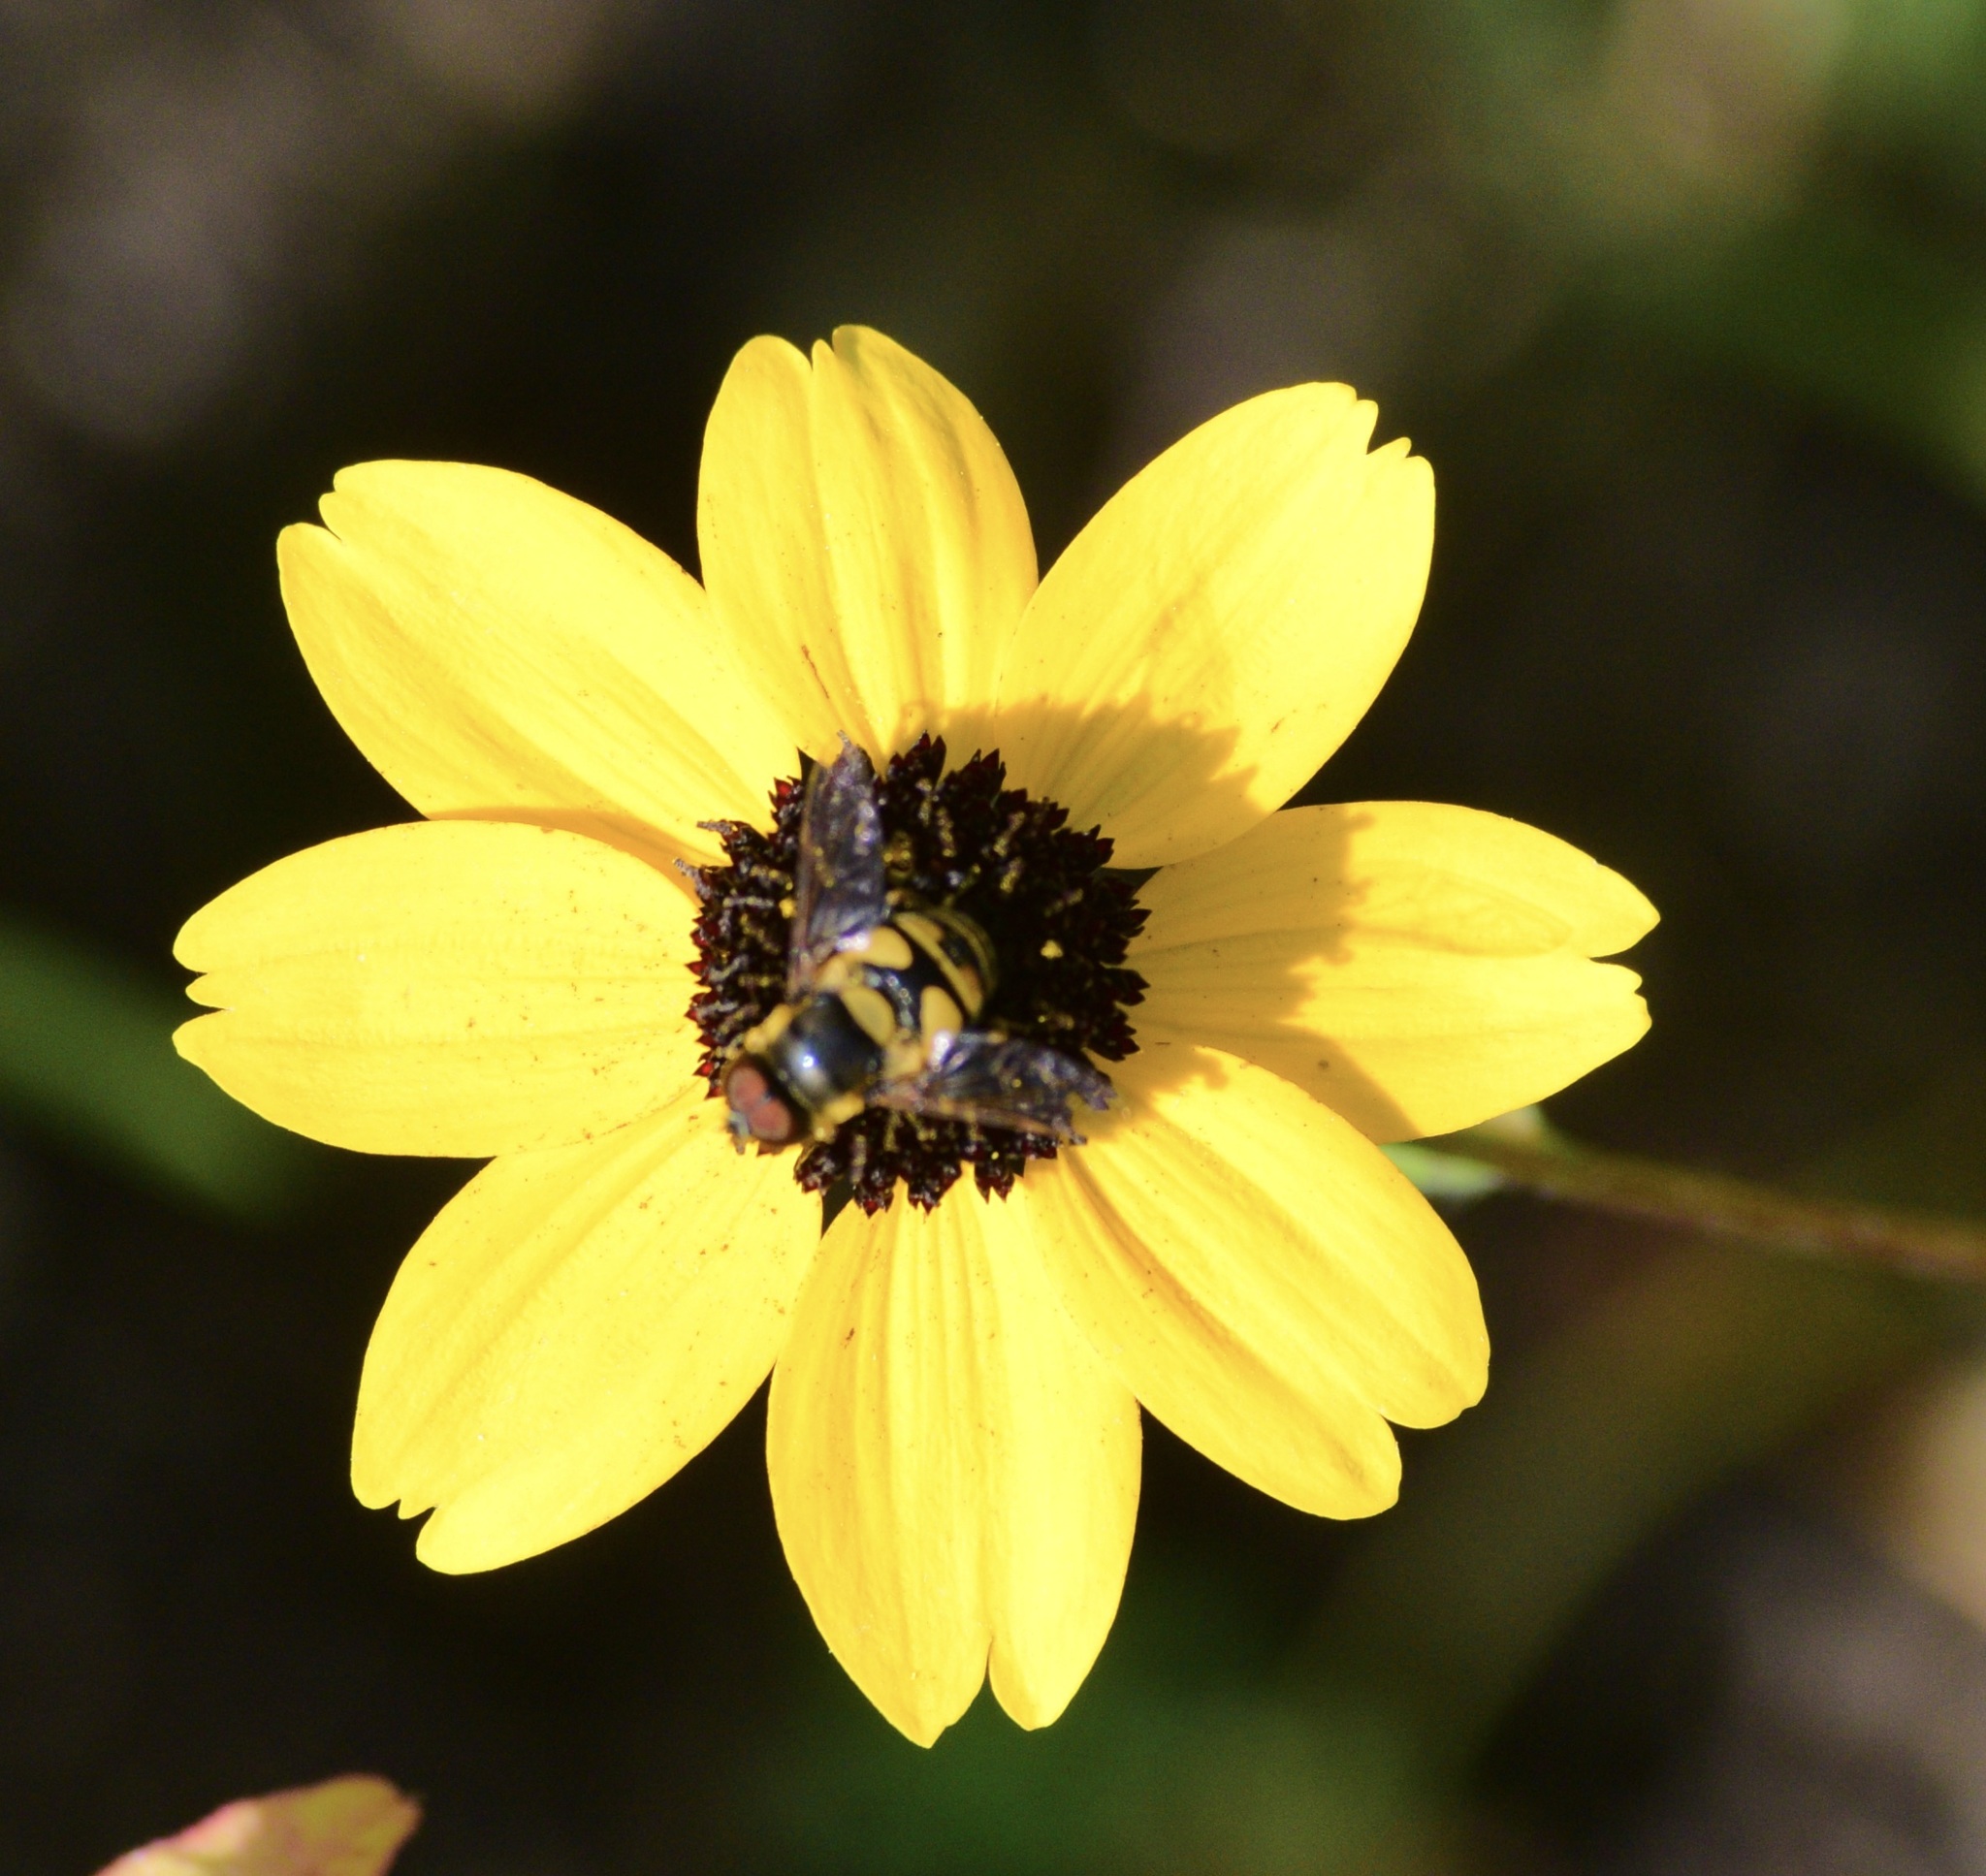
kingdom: Animalia
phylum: Arthropoda
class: Insecta
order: Diptera
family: Syrphidae
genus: Eristalis
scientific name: Eristalis transversa
